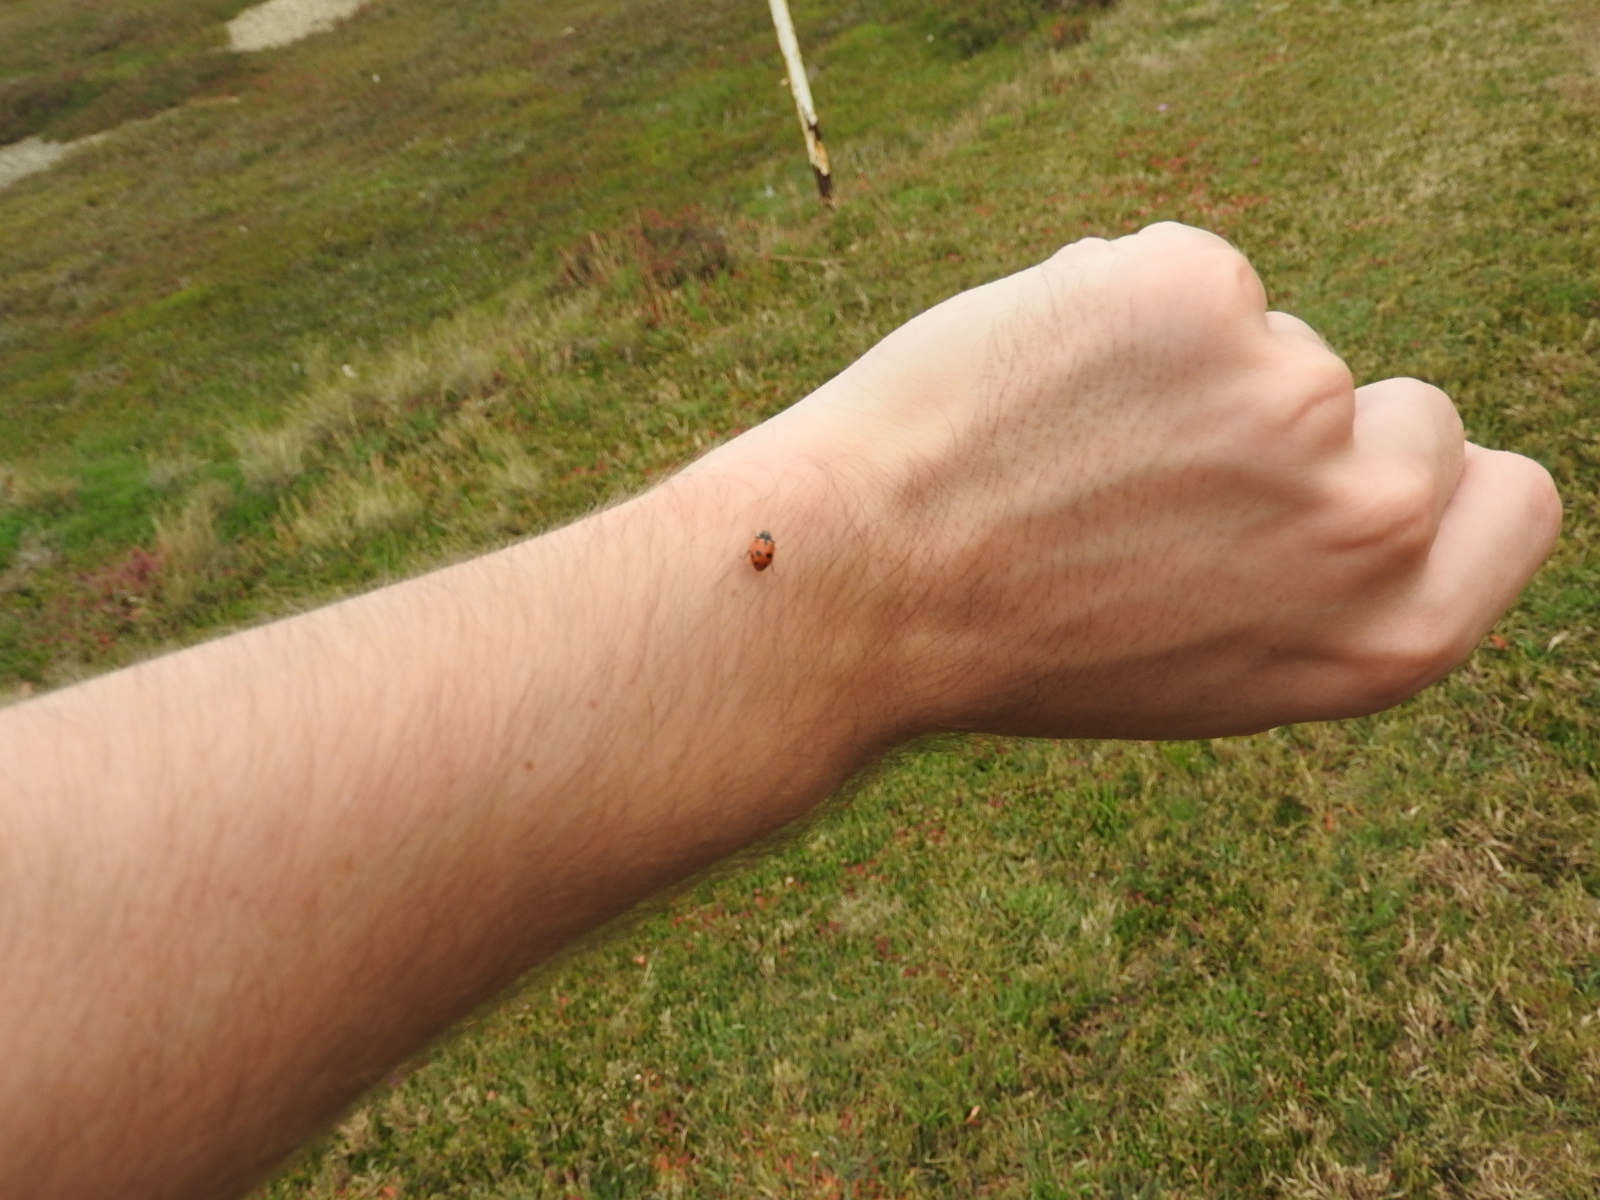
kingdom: Animalia
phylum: Arthropoda
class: Insecta
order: Coleoptera
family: Coccinellidae
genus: Hippodamia
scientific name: Hippodamia variegata
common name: Ladybird beetle
